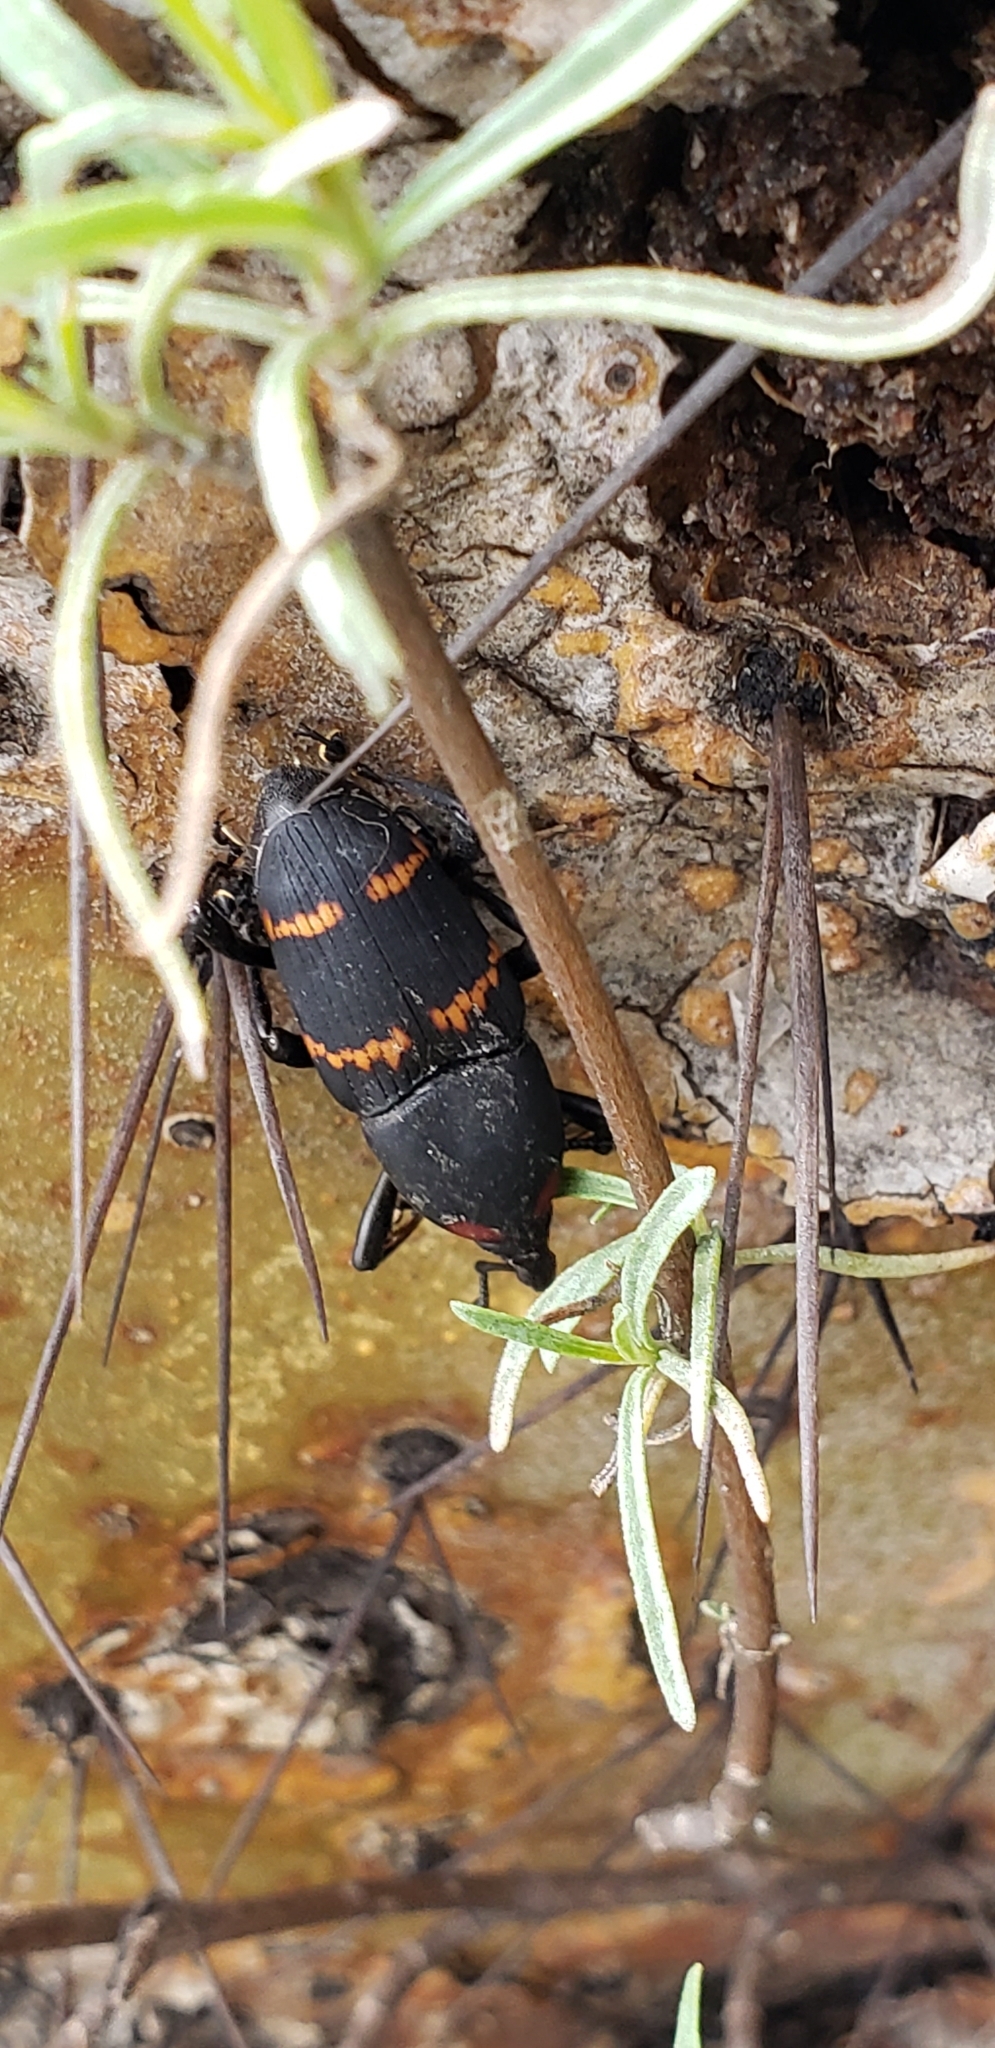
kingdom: Animalia
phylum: Arthropoda
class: Insecta
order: Coleoptera
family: Dryophthoridae
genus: Cactophagus
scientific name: Cactophagus spinolae
